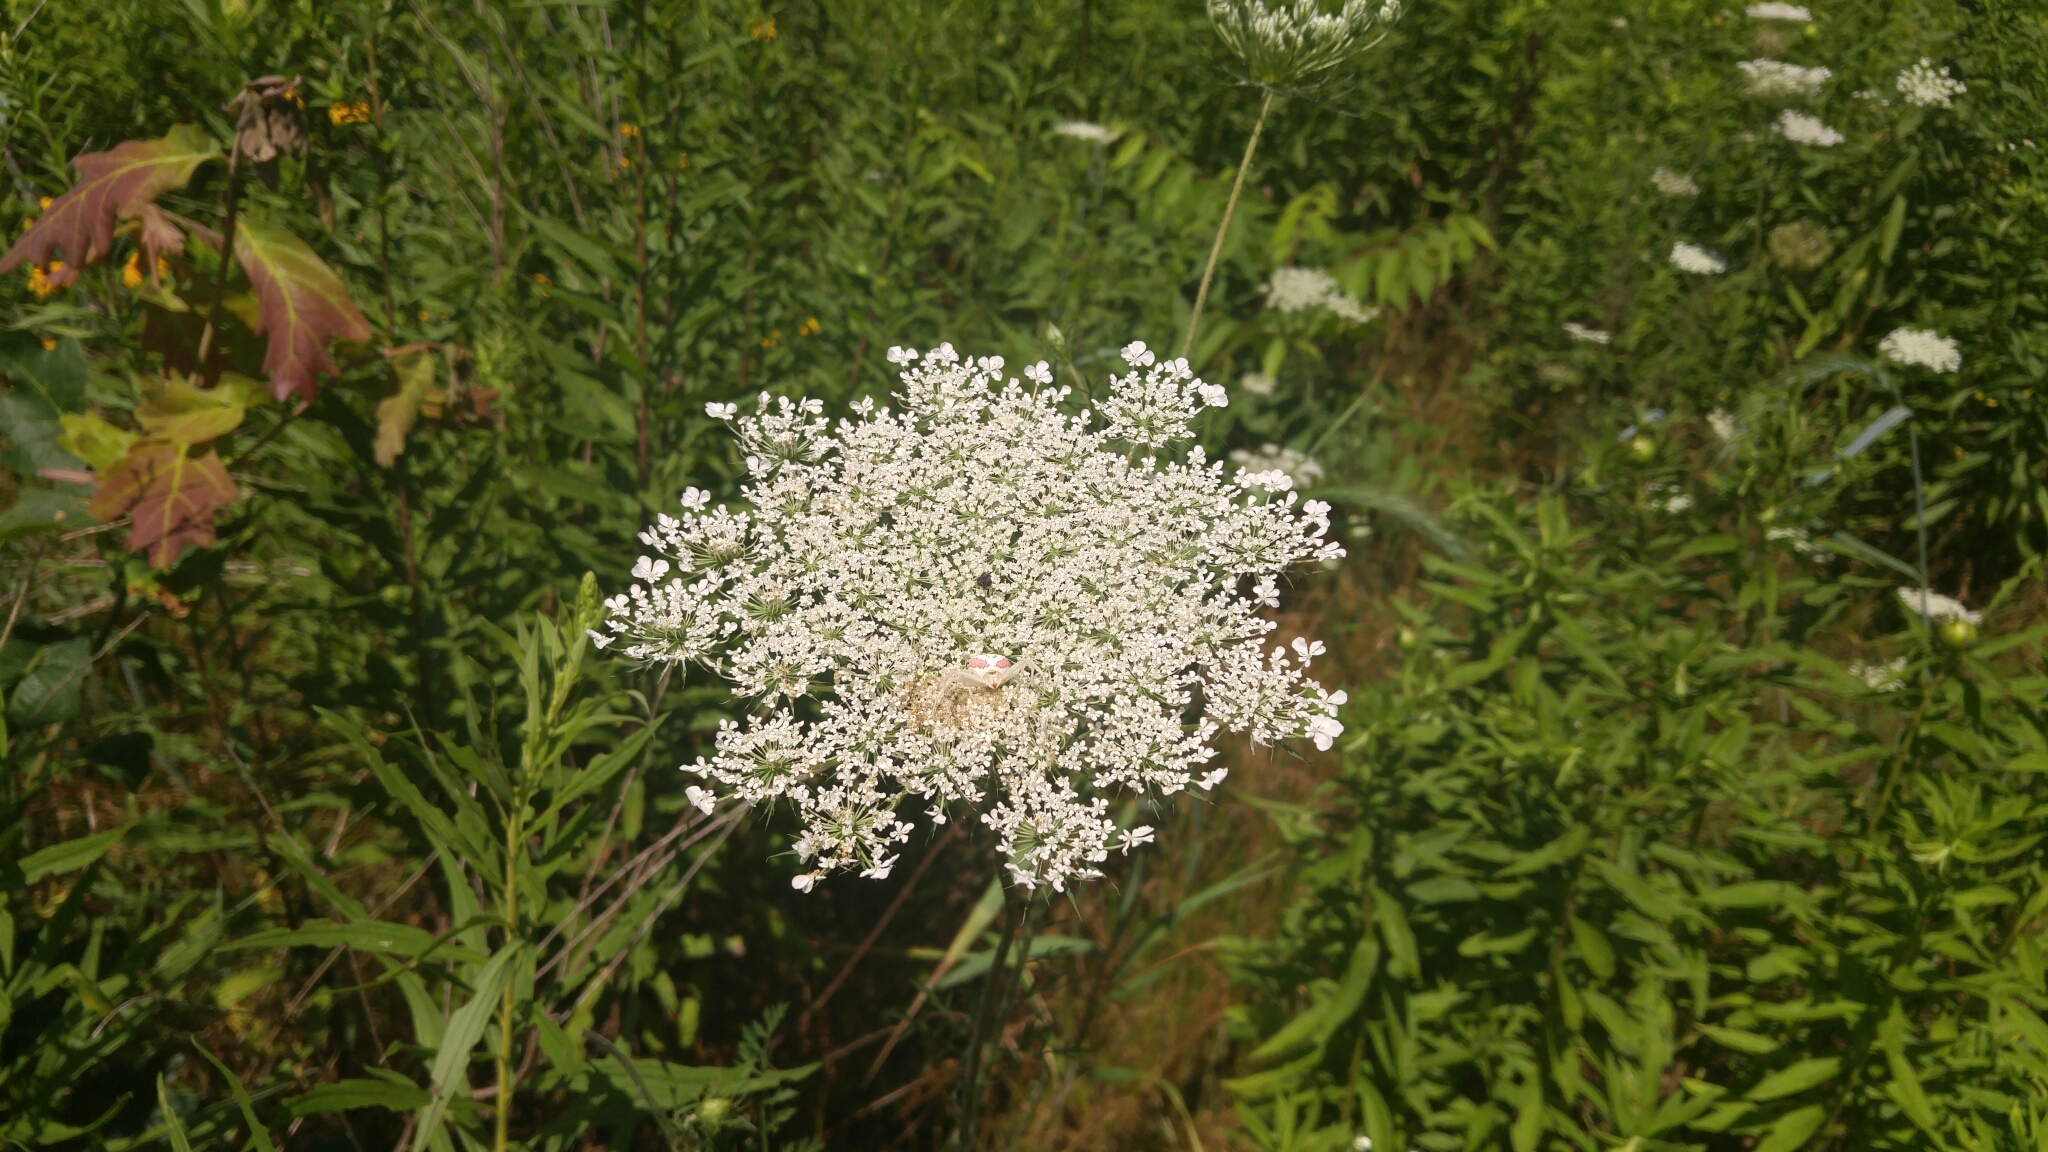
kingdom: Animalia
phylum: Arthropoda
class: Arachnida
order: Araneae
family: Thomisidae
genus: Misumena
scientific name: Misumena vatia
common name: Goldenrod crab spider
